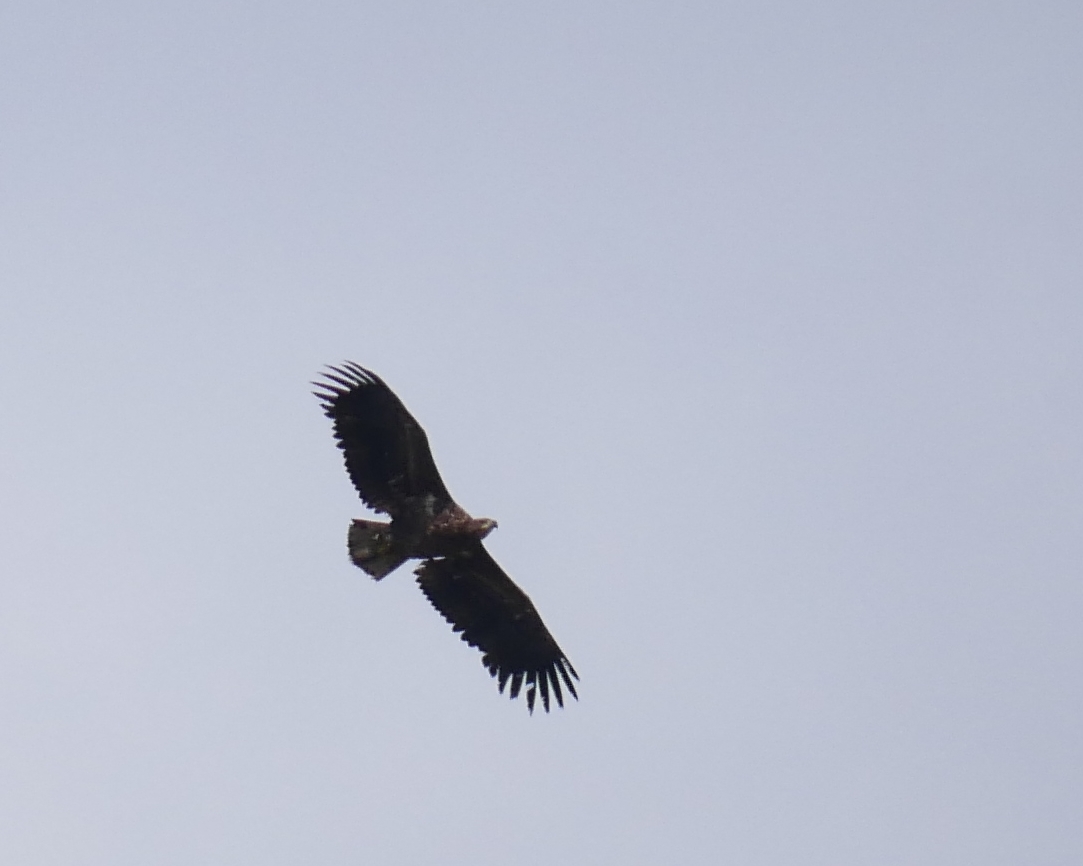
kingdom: Animalia
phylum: Chordata
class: Aves
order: Accipitriformes
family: Accipitridae
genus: Haliaeetus
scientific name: Haliaeetus albicilla
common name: White-tailed eagle
